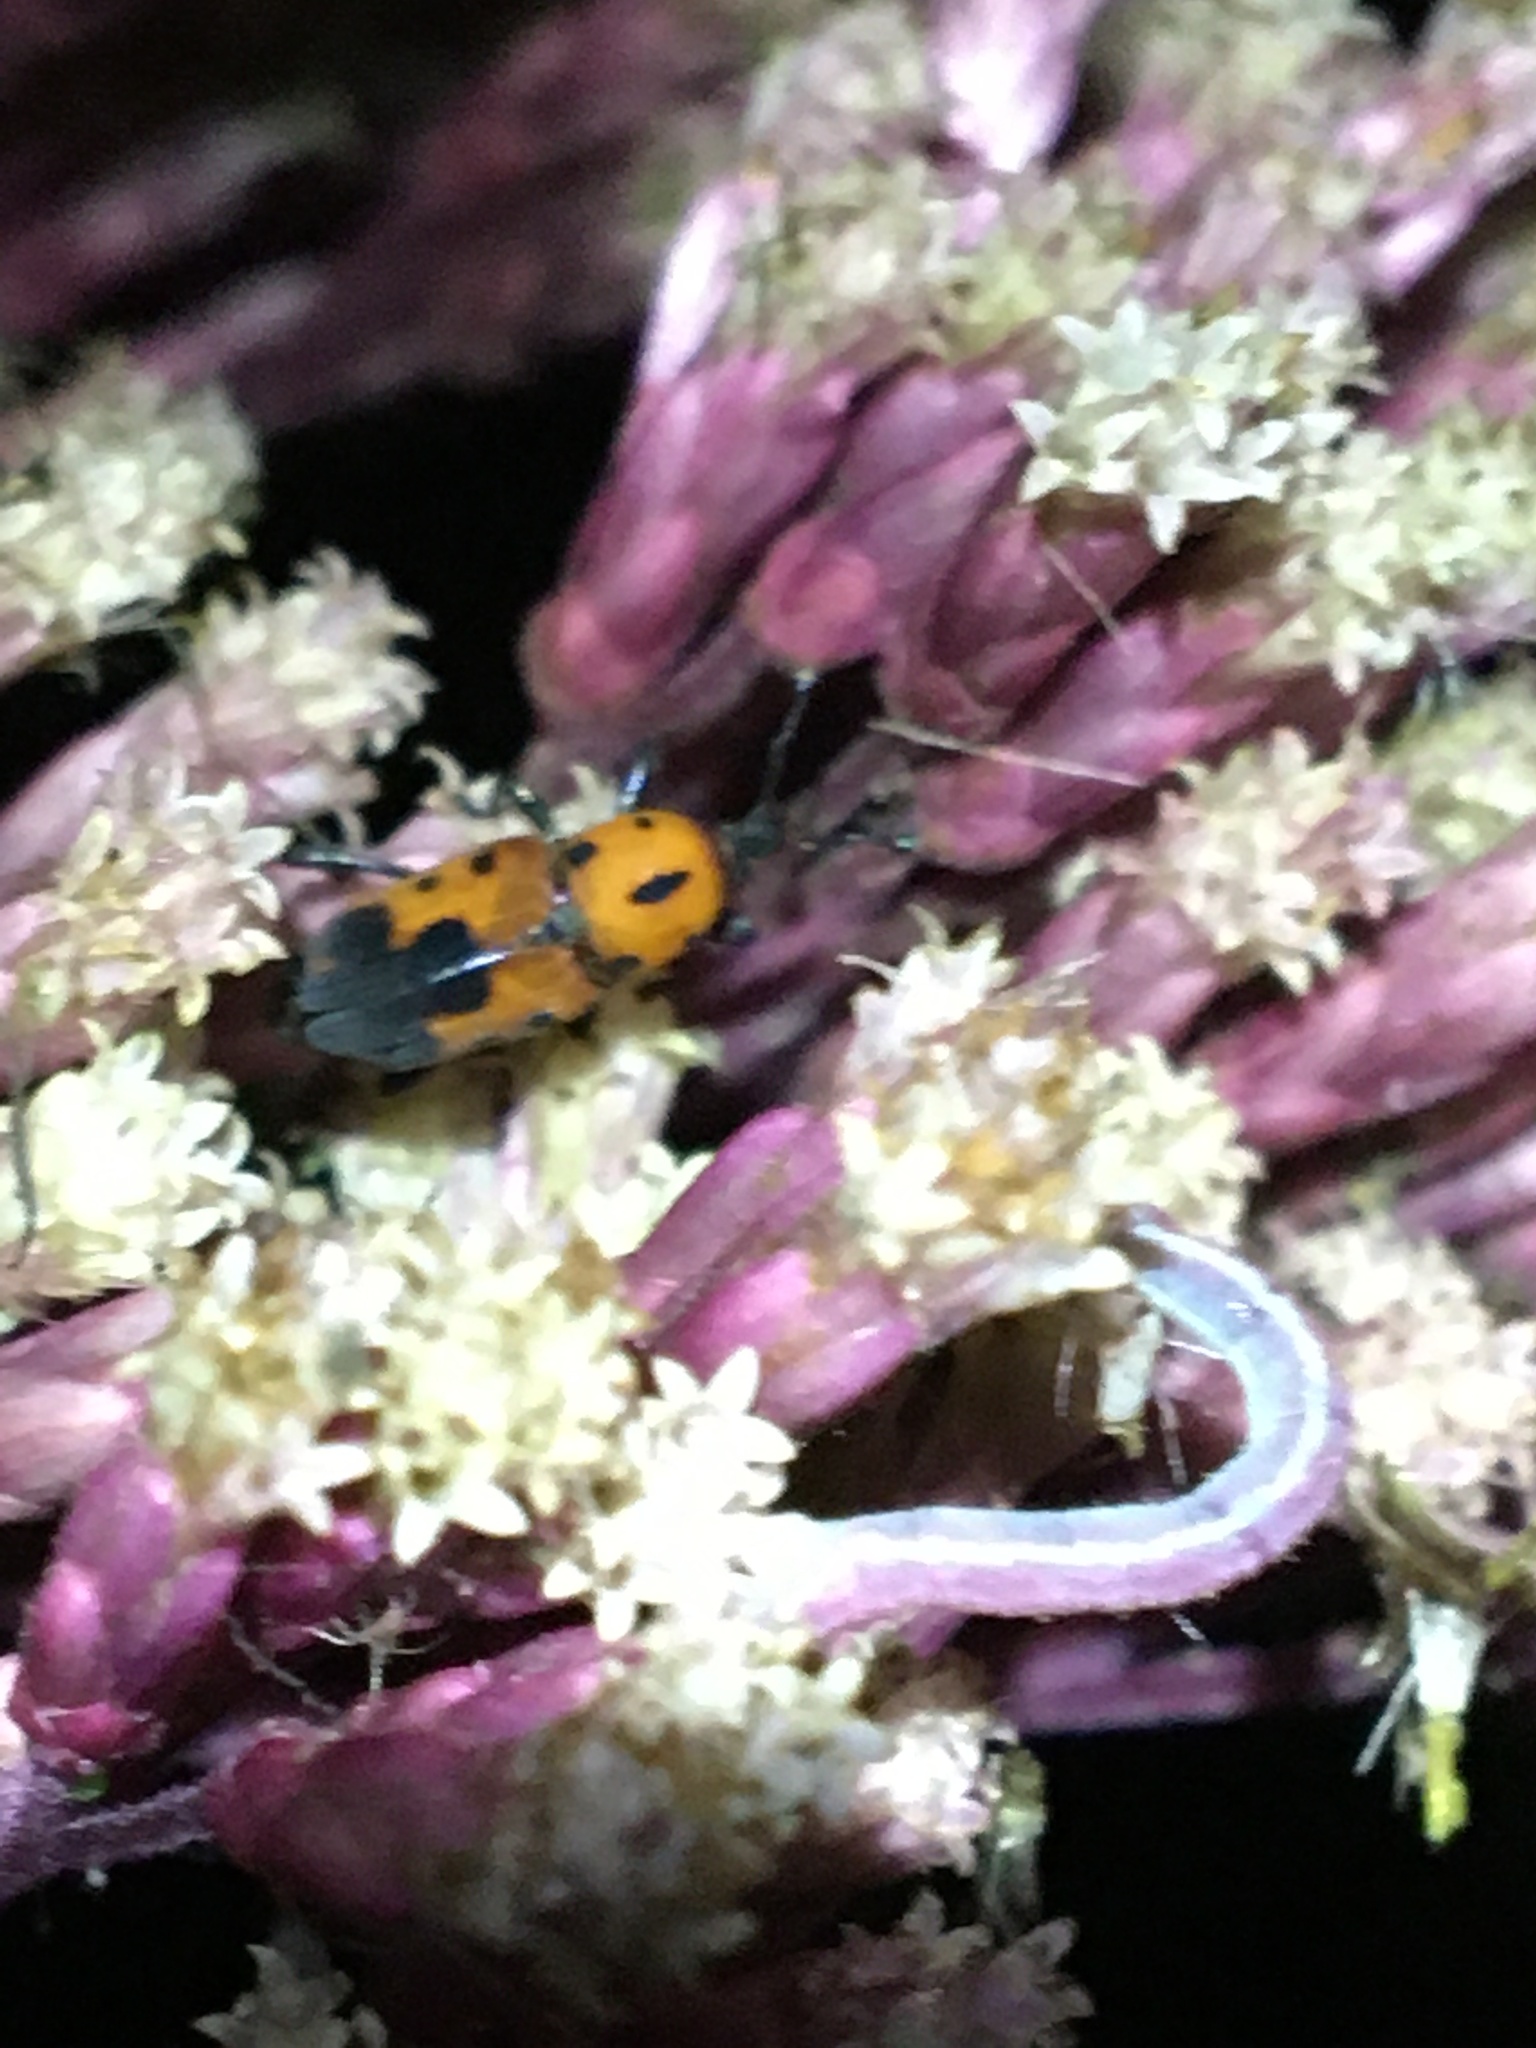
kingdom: Animalia
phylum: Arthropoda
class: Insecta
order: Coleoptera
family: Dryophthoridae
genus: Rhodobaenus
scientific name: Rhodobaenus quinquepunctatus
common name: Cocklebur weevil
